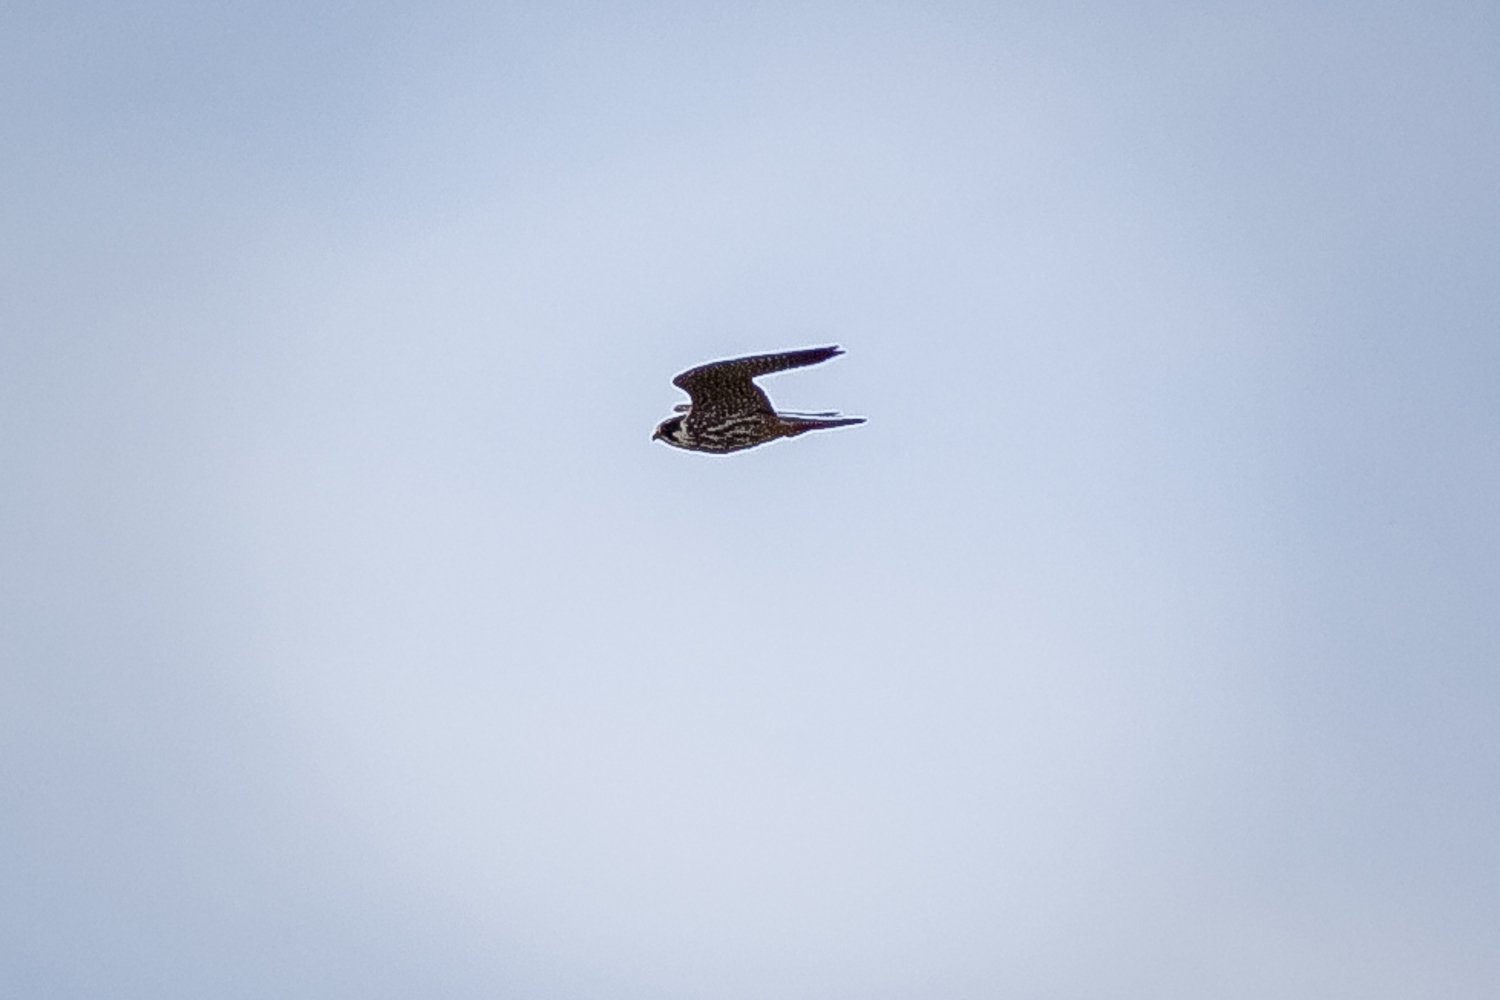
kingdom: Animalia
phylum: Chordata
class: Aves
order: Falconiformes
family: Falconidae
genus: Falco
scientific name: Falco subbuteo
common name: Eurasian hobby
